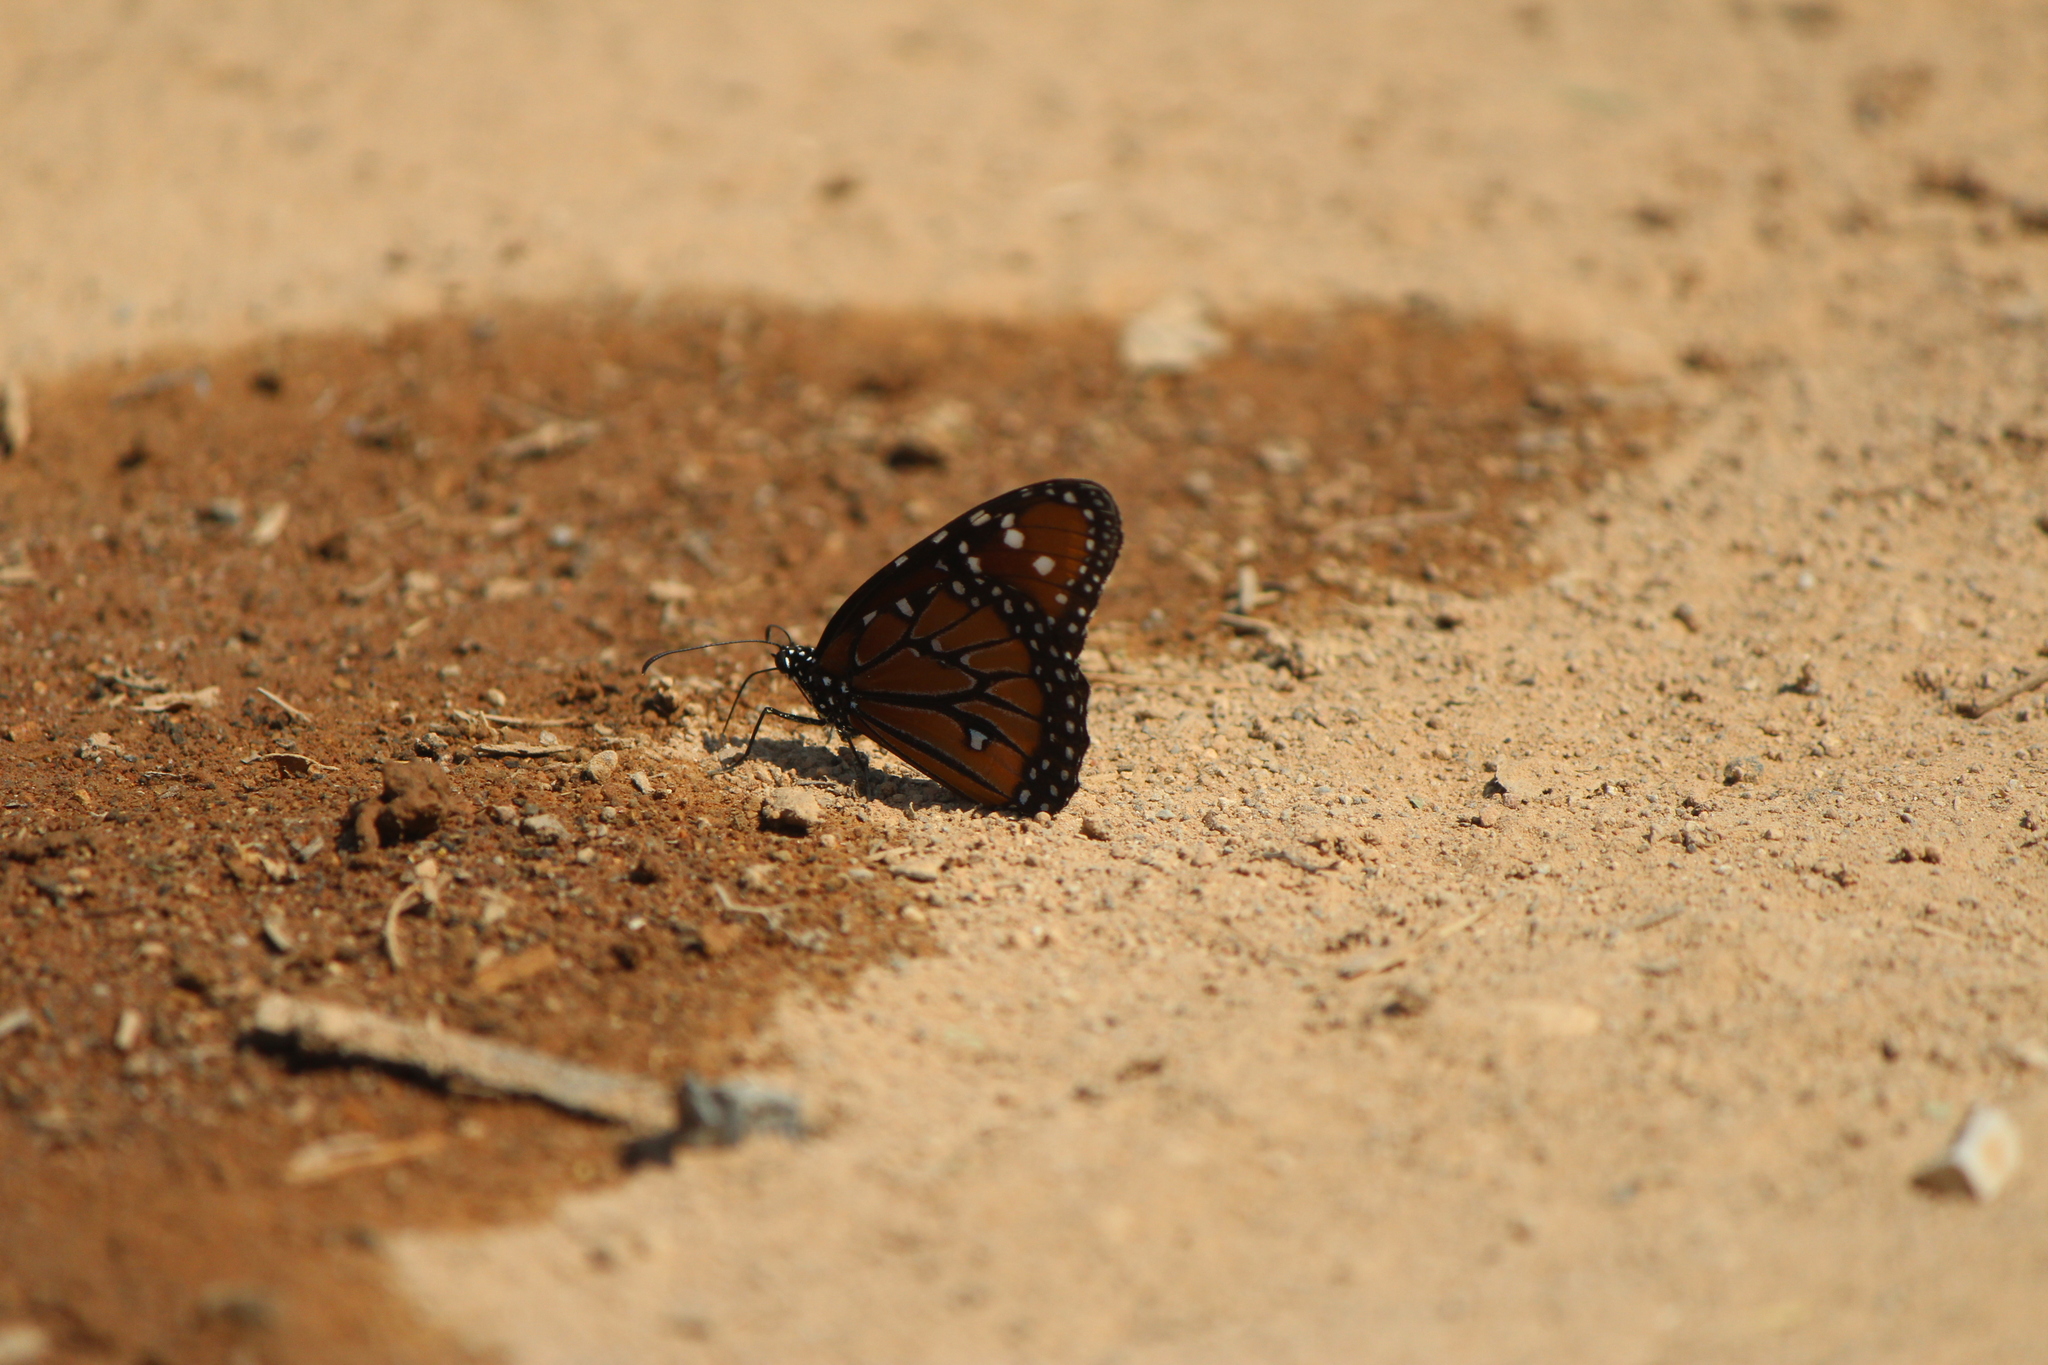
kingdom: Animalia
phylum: Arthropoda
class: Insecta
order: Lepidoptera
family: Nymphalidae
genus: Danaus
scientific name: Danaus gilippus
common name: Queen
